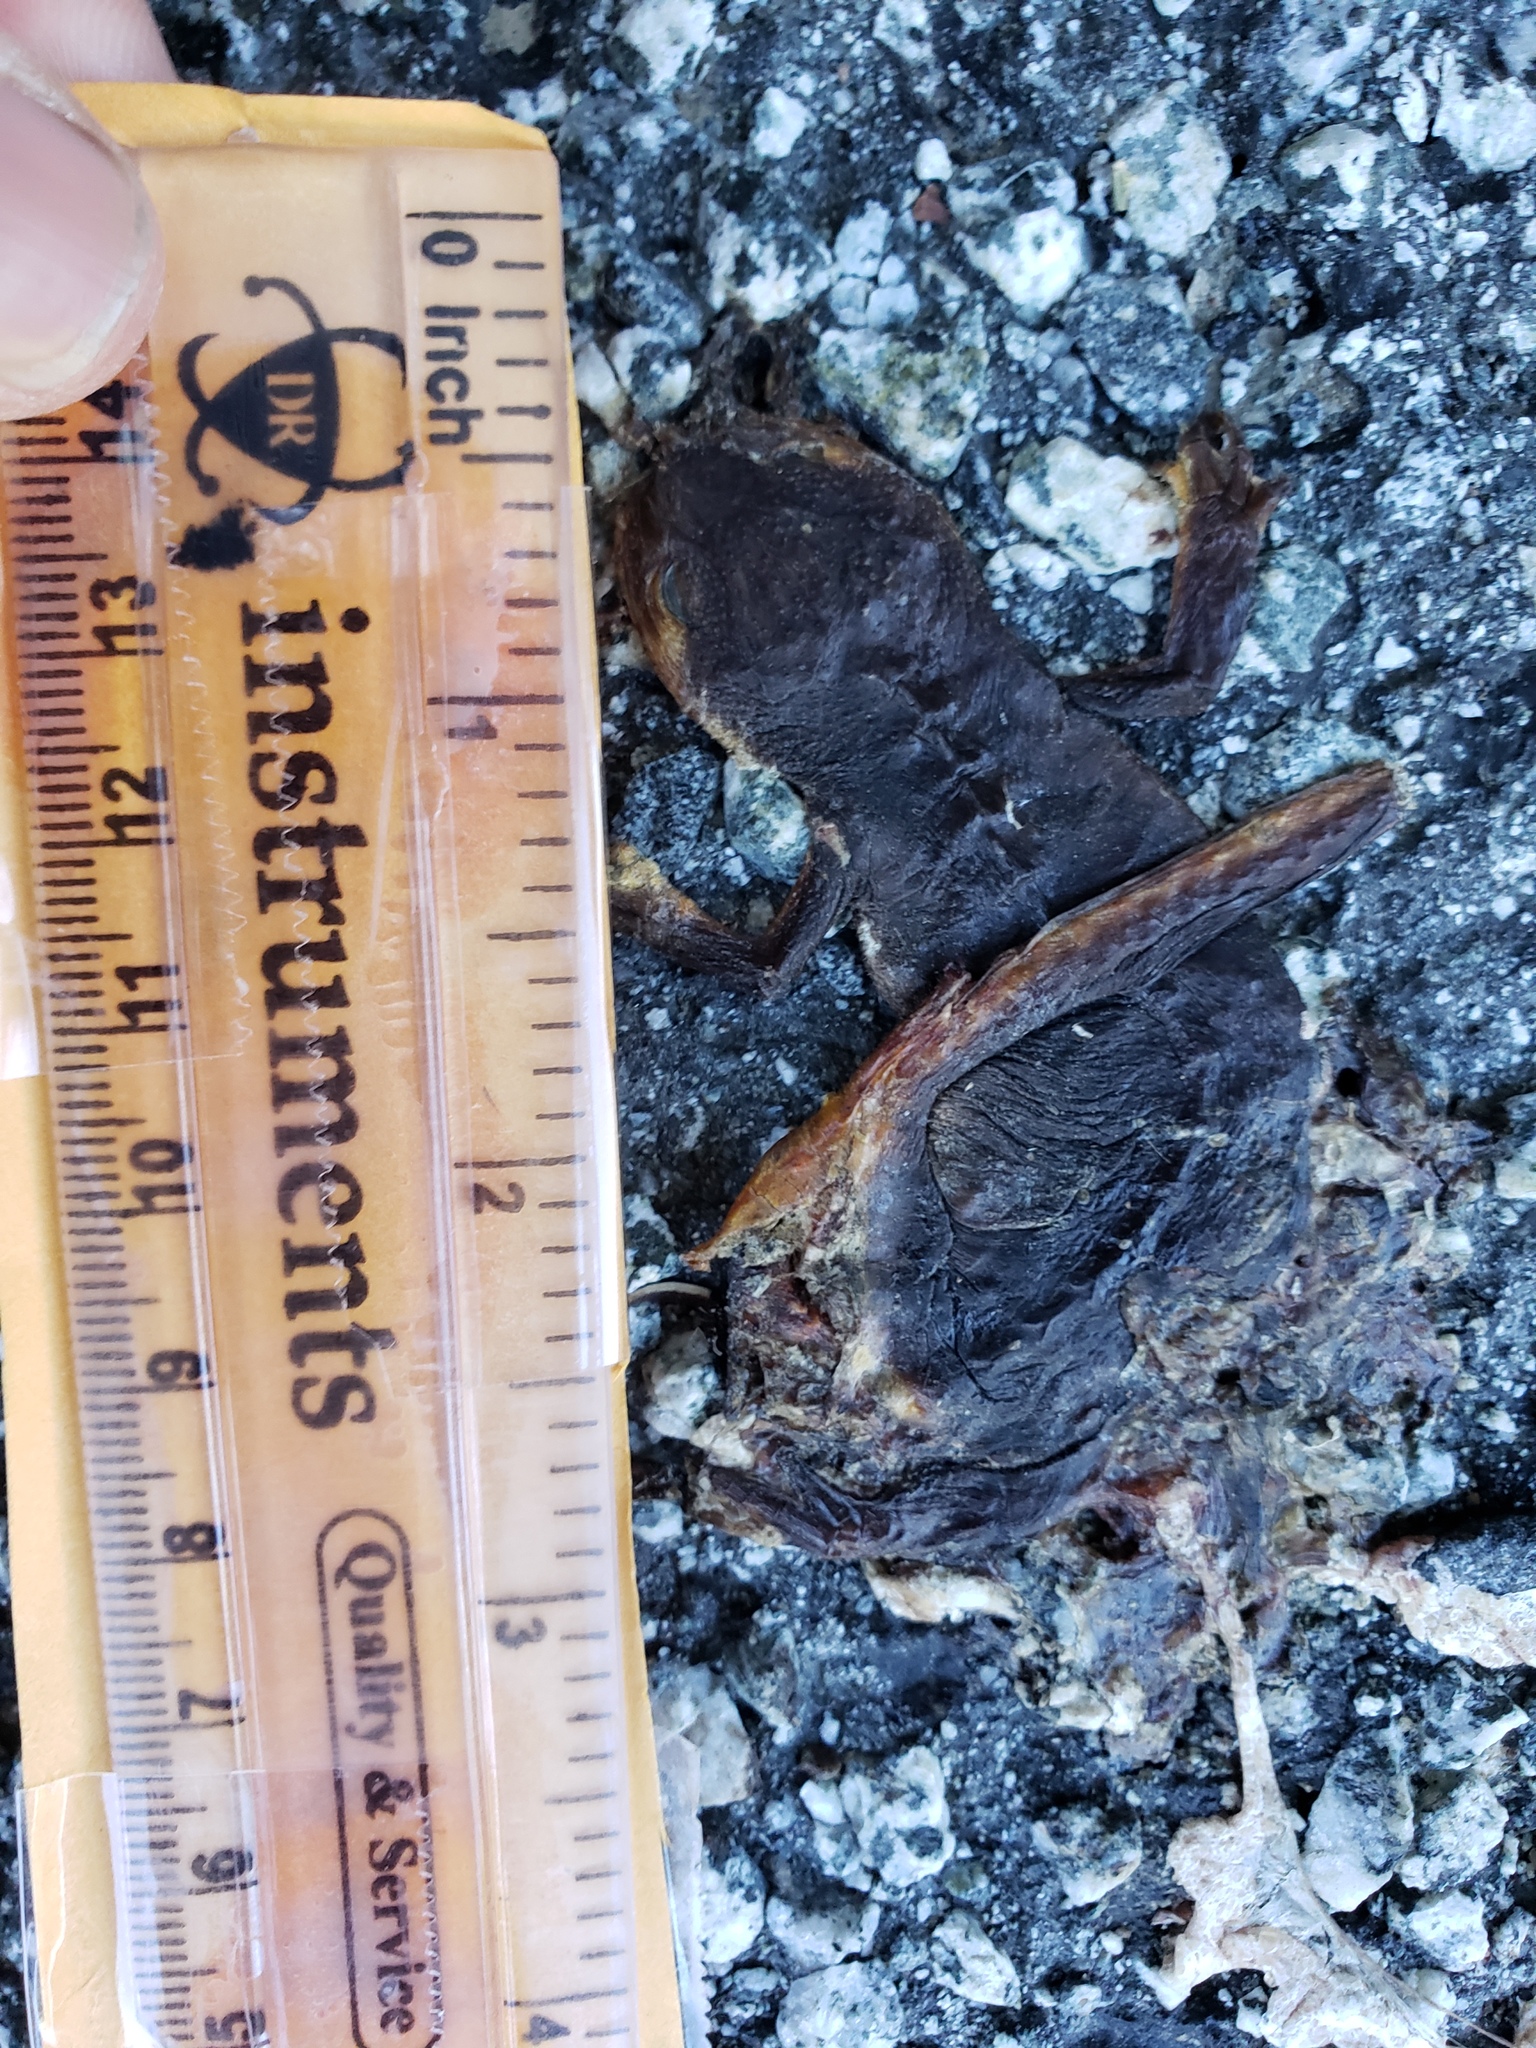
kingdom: Animalia
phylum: Chordata
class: Amphibia
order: Caudata
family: Salamandridae
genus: Taricha
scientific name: Taricha
